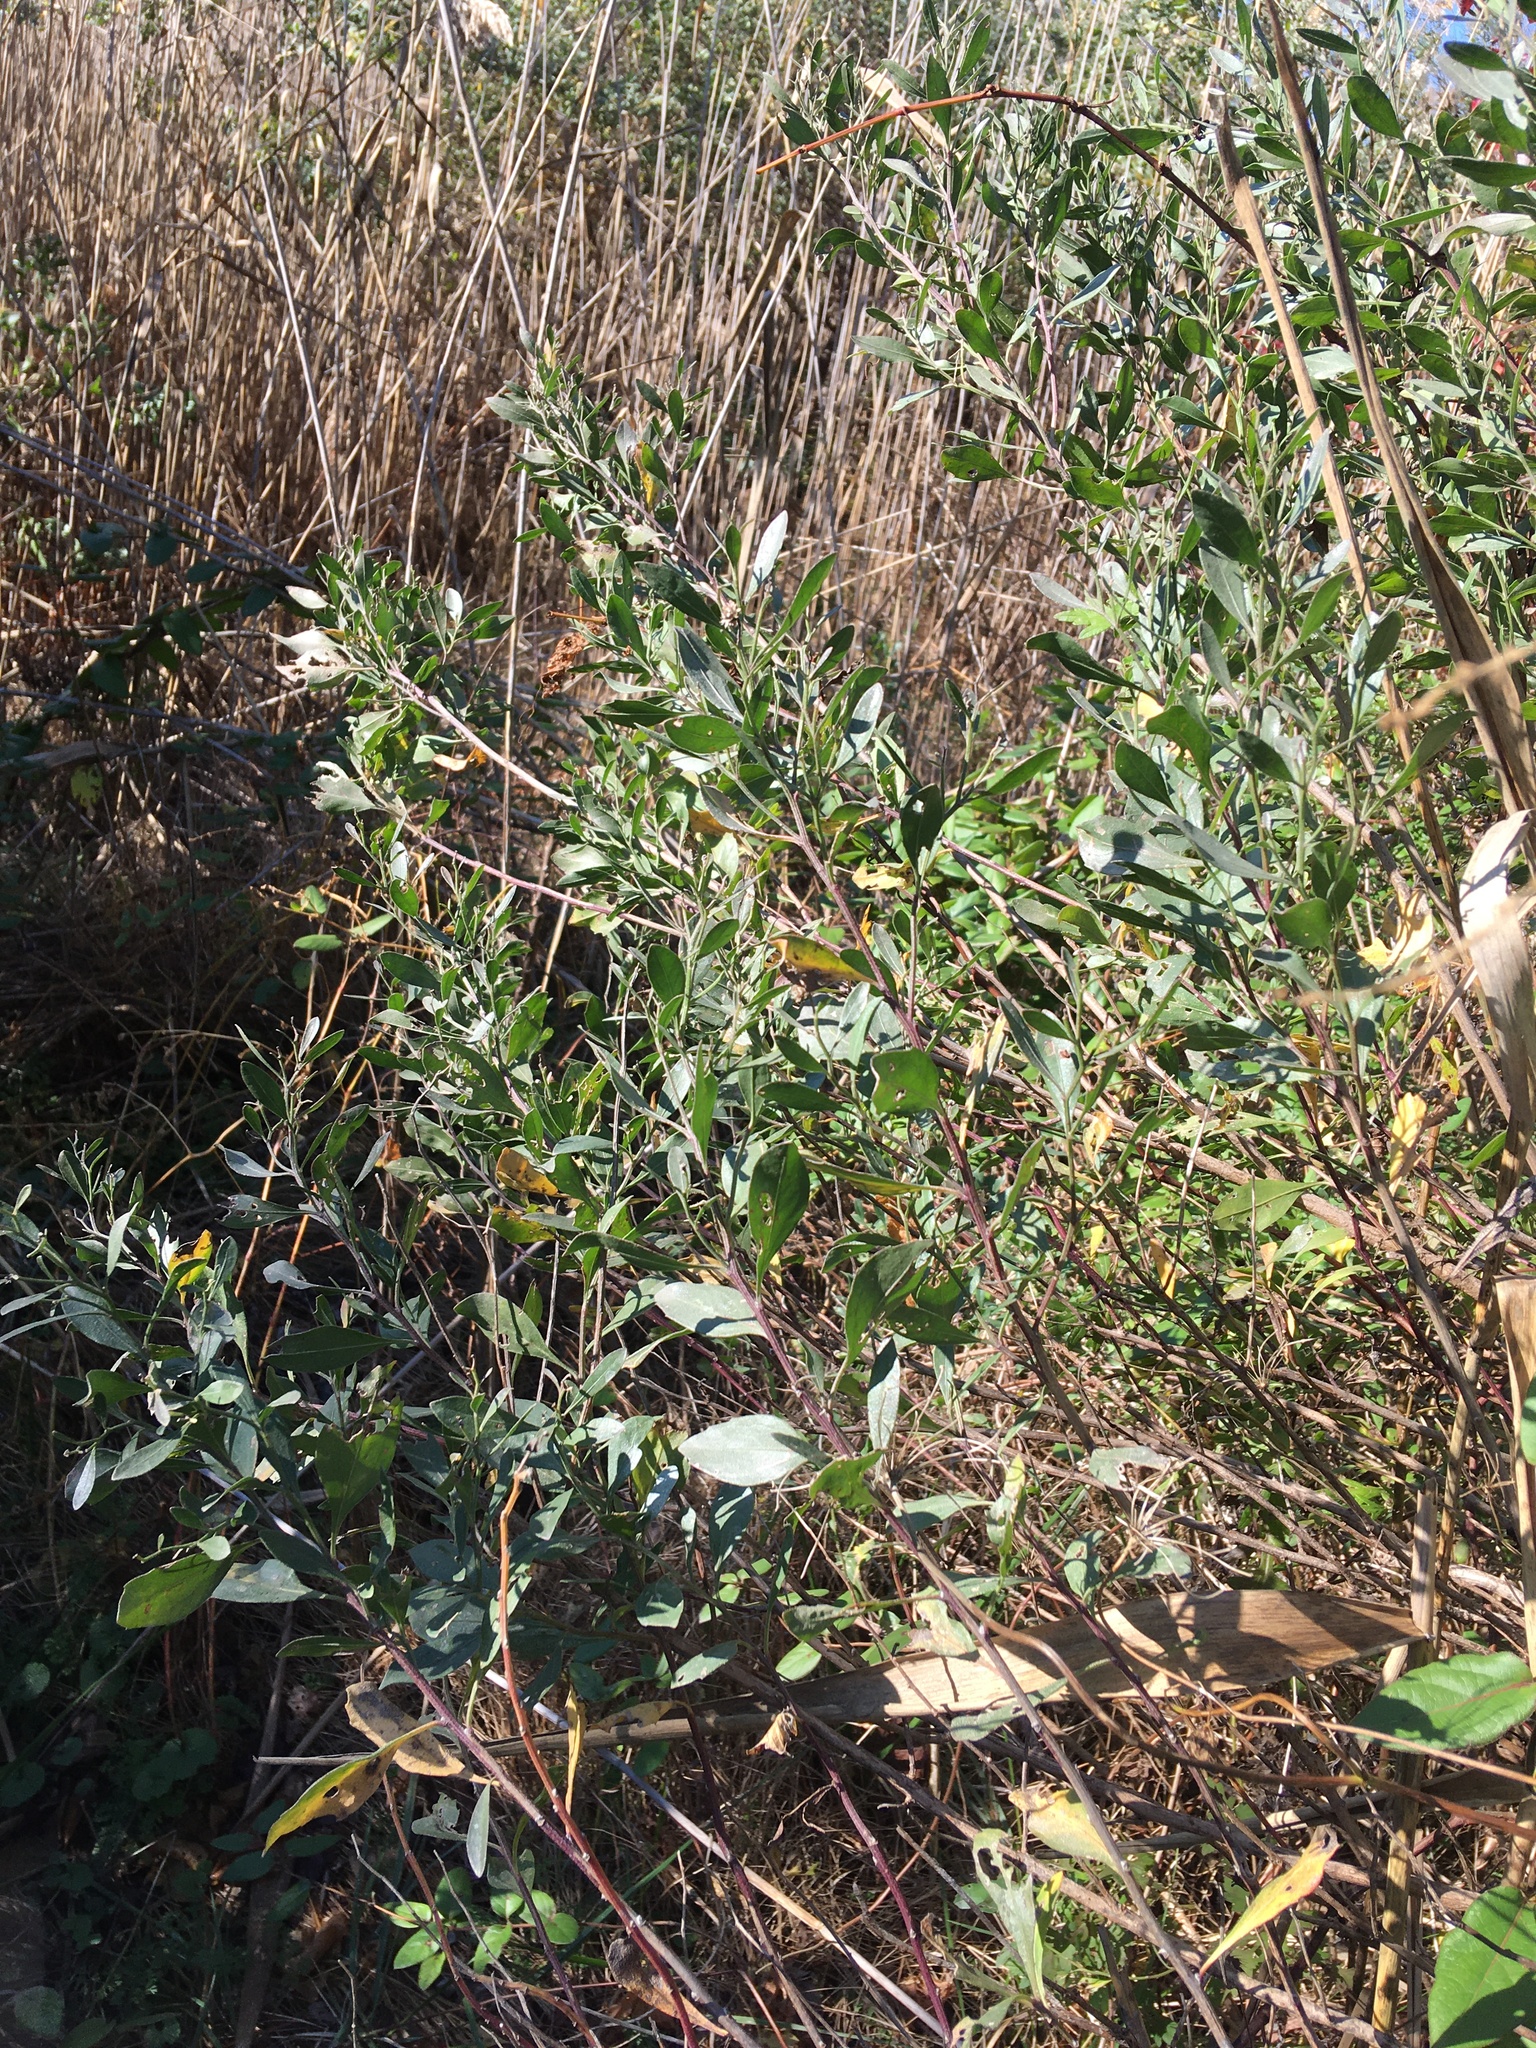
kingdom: Plantae
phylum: Tracheophyta
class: Magnoliopsida
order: Asterales
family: Asteraceae
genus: Baccharis
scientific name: Baccharis halimifolia
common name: Eastern baccharis
